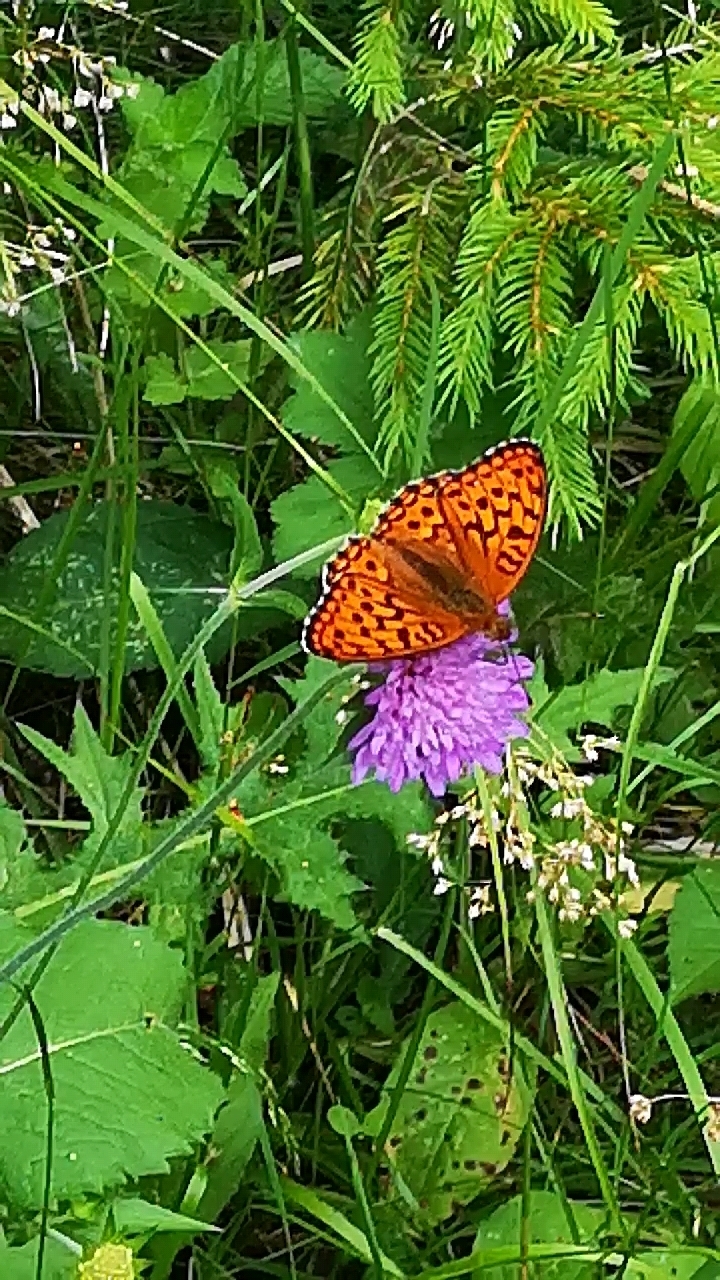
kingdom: Animalia
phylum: Arthropoda
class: Insecta
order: Lepidoptera
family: Nymphalidae
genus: Fabriciana
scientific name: Fabriciana adippe
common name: High brown fritillary
